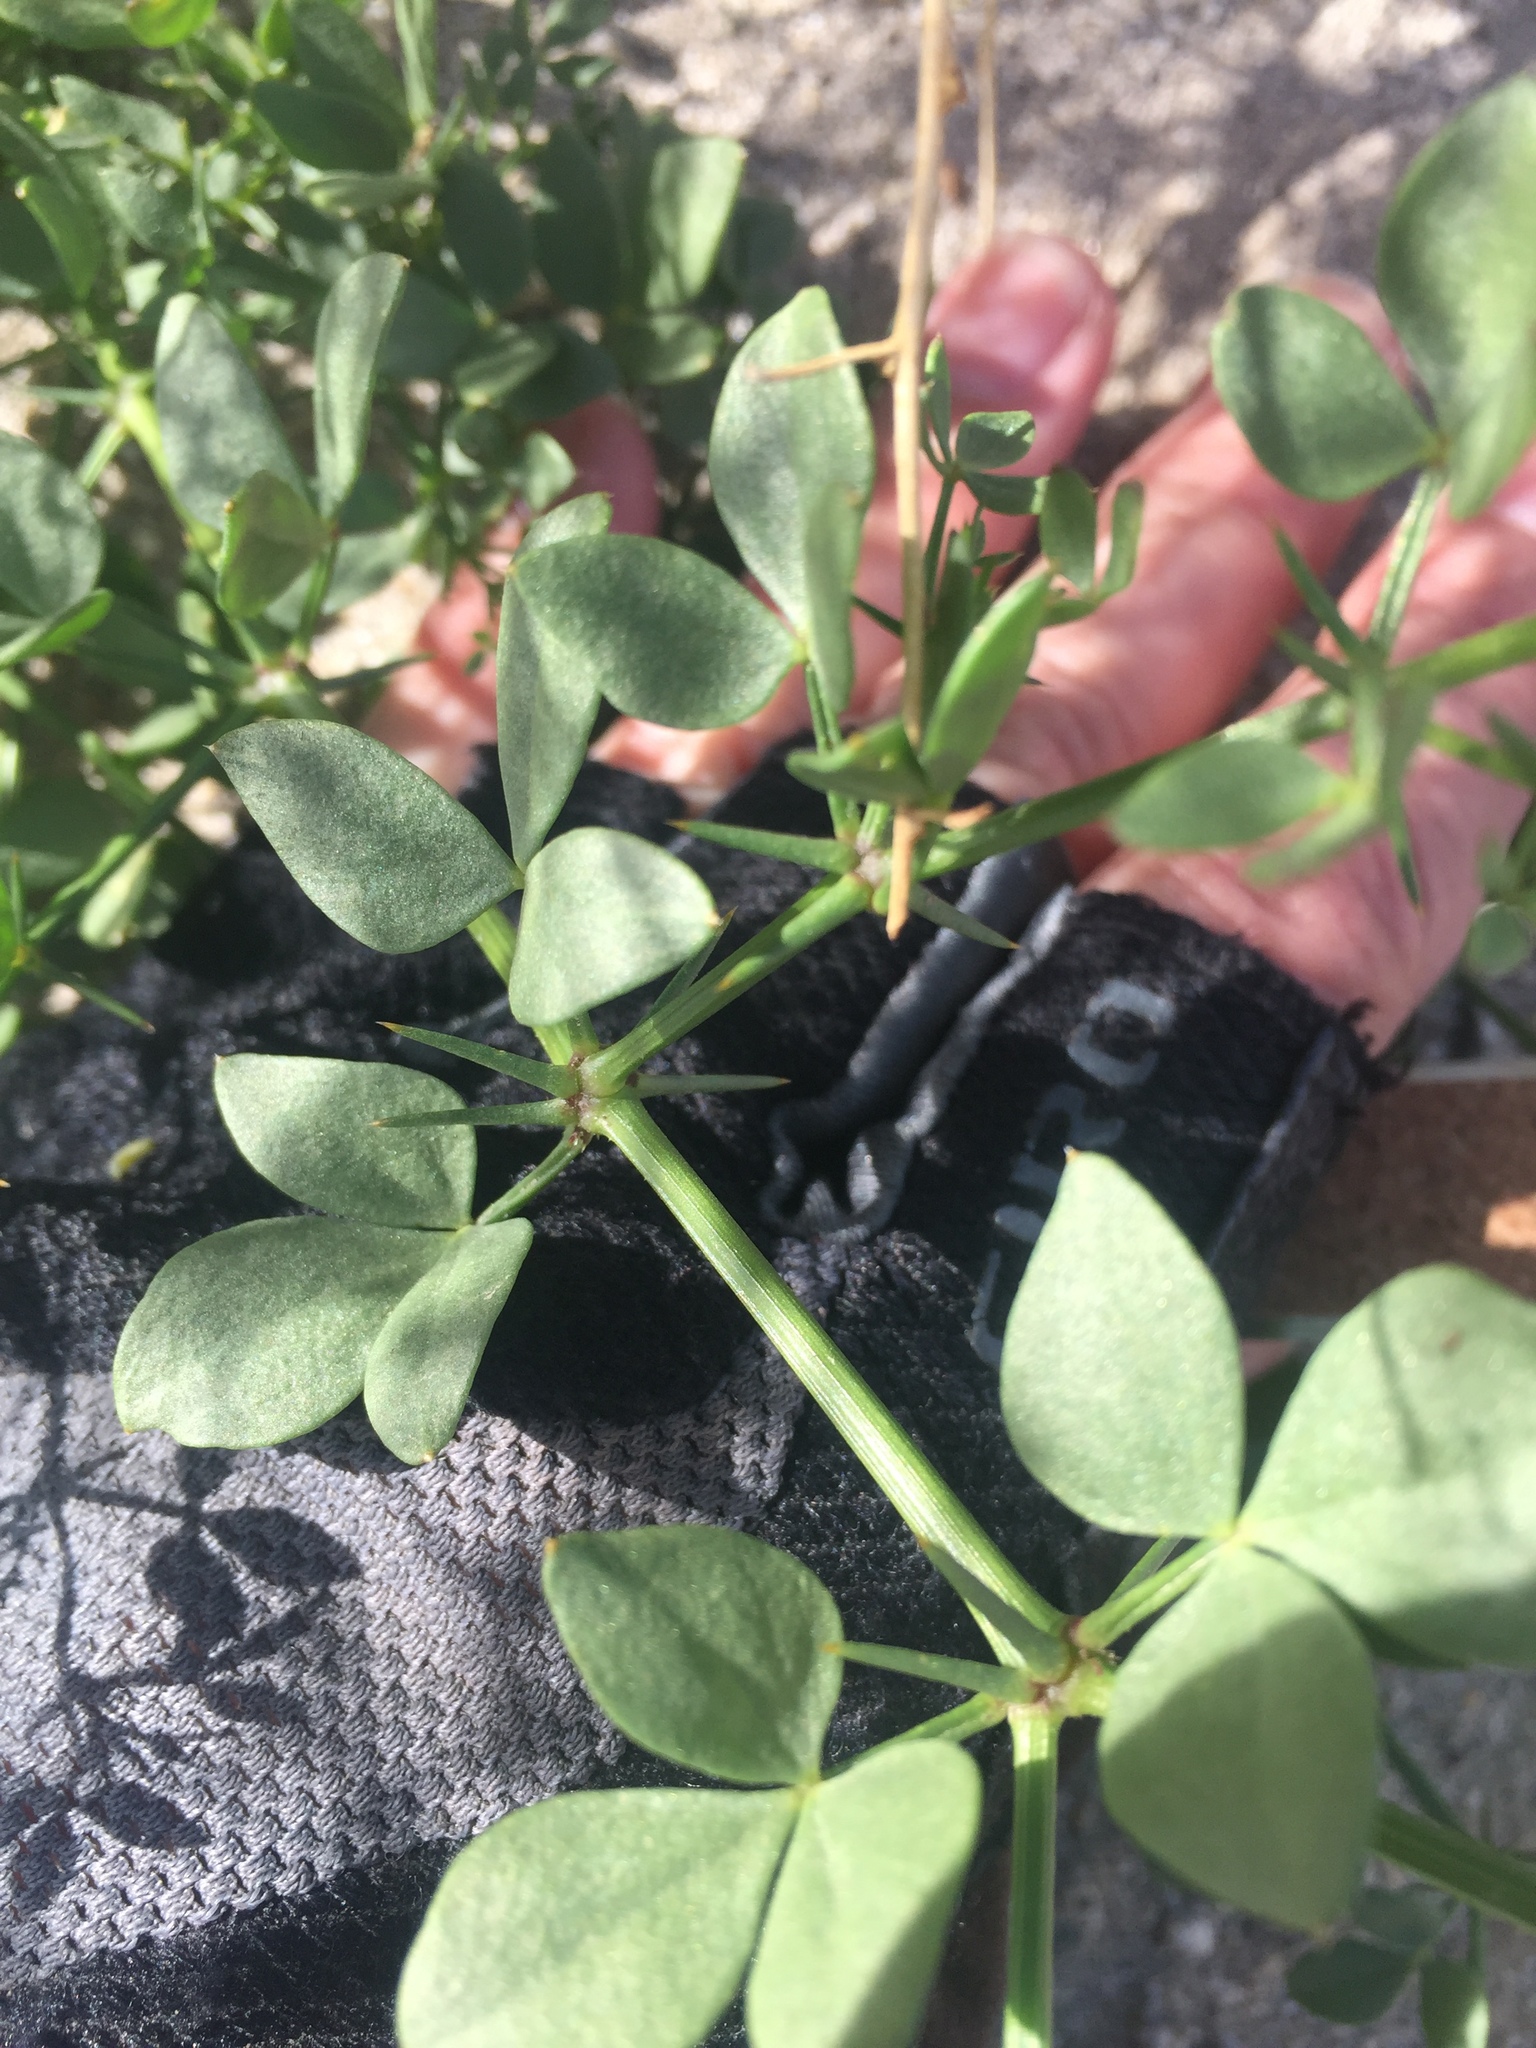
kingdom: Plantae
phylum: Tracheophyta
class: Magnoliopsida
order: Zygophyllales
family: Zygophyllaceae
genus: Fagonia
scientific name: Fagonia pachyacantha
